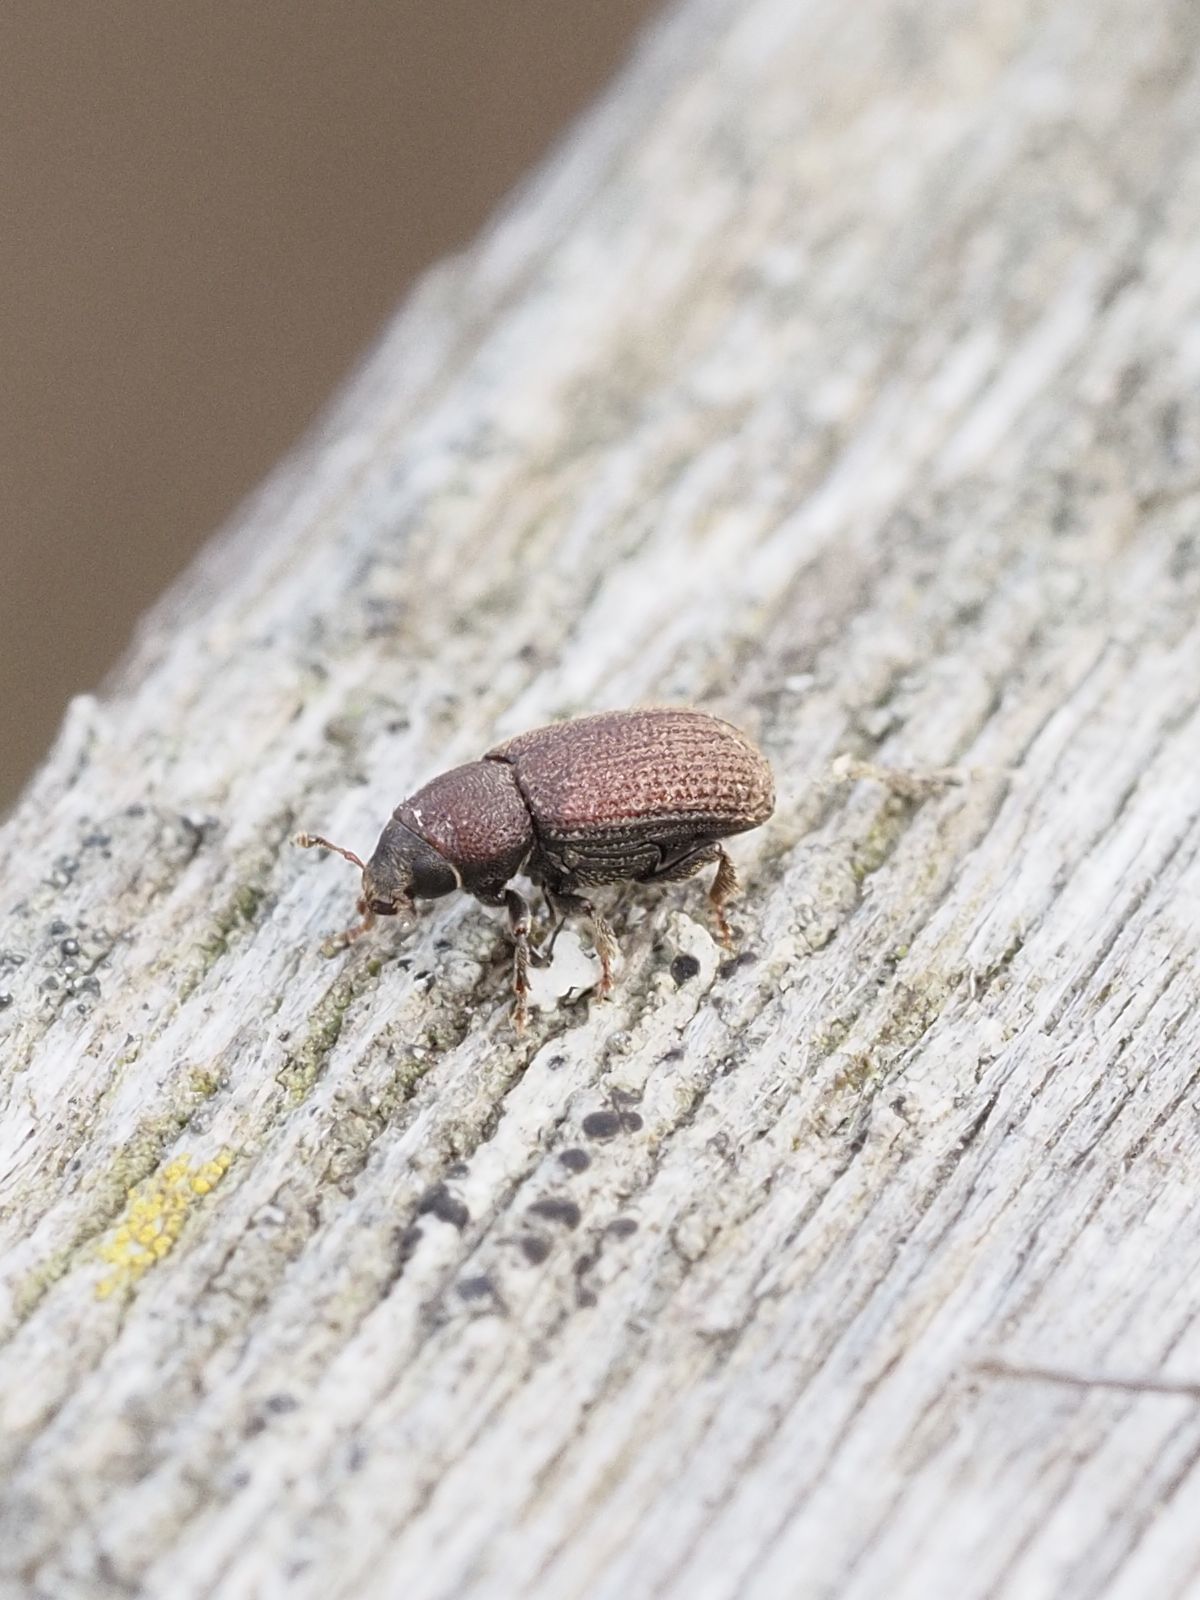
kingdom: Animalia
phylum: Arthropoda
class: Insecta
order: Coleoptera
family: Curculionidae
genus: Hylurgops
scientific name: Hylurgops palliatus
